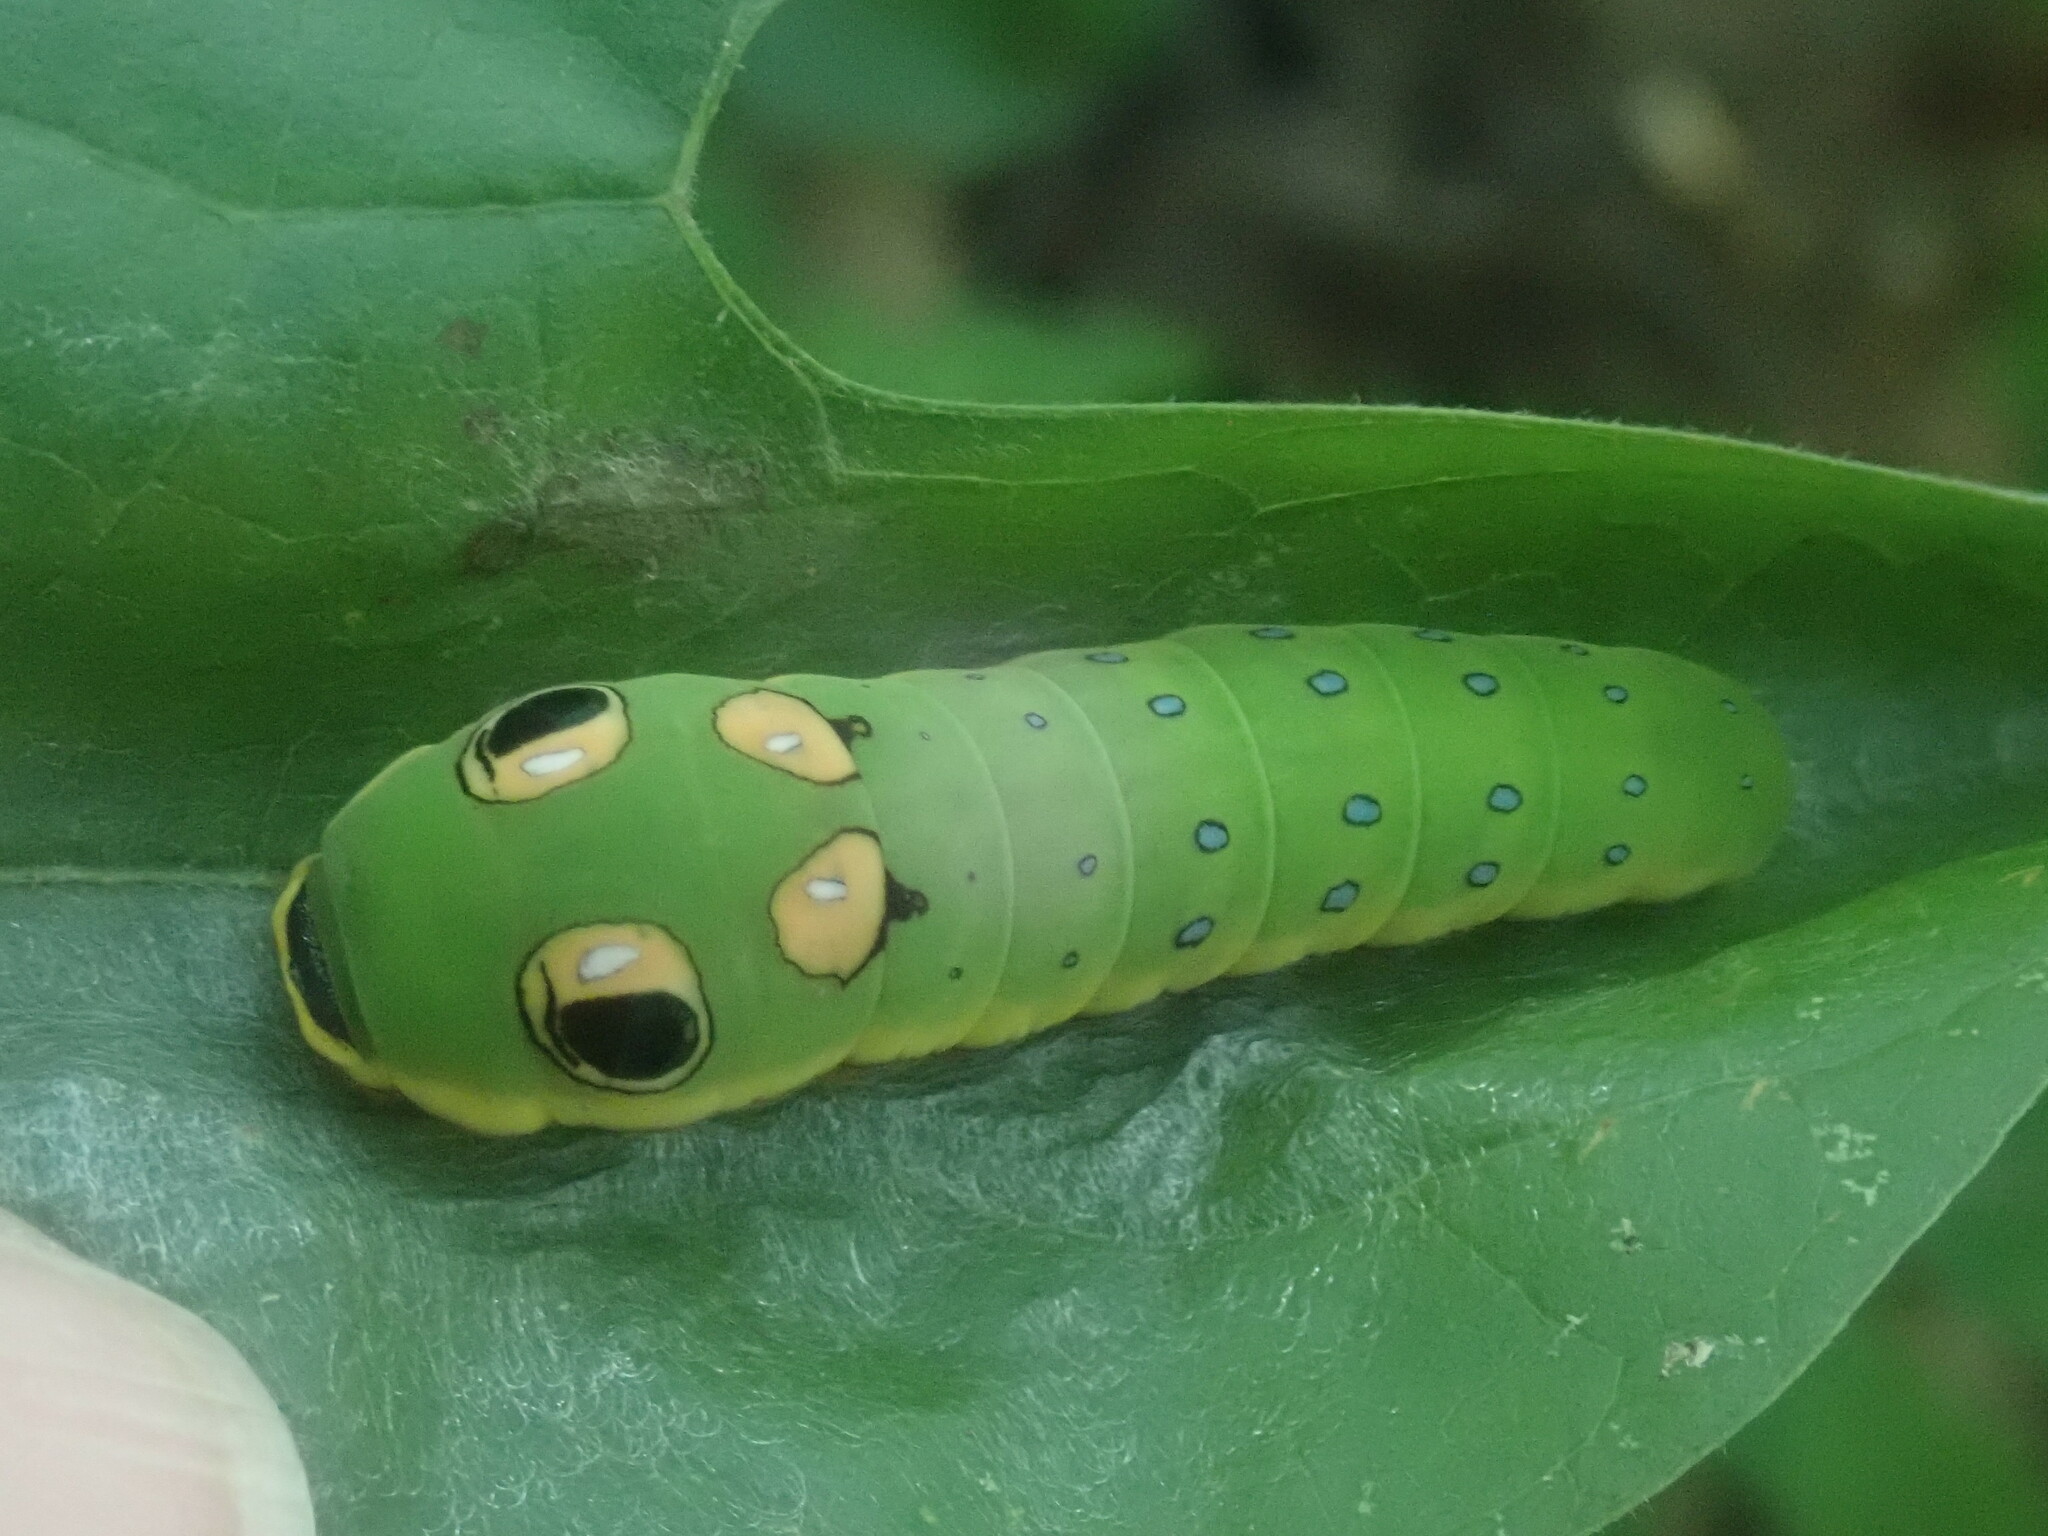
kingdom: Animalia
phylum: Arthropoda
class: Insecta
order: Lepidoptera
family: Papilionidae
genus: Papilio
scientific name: Papilio troilus
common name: Spicebush swallowtail
